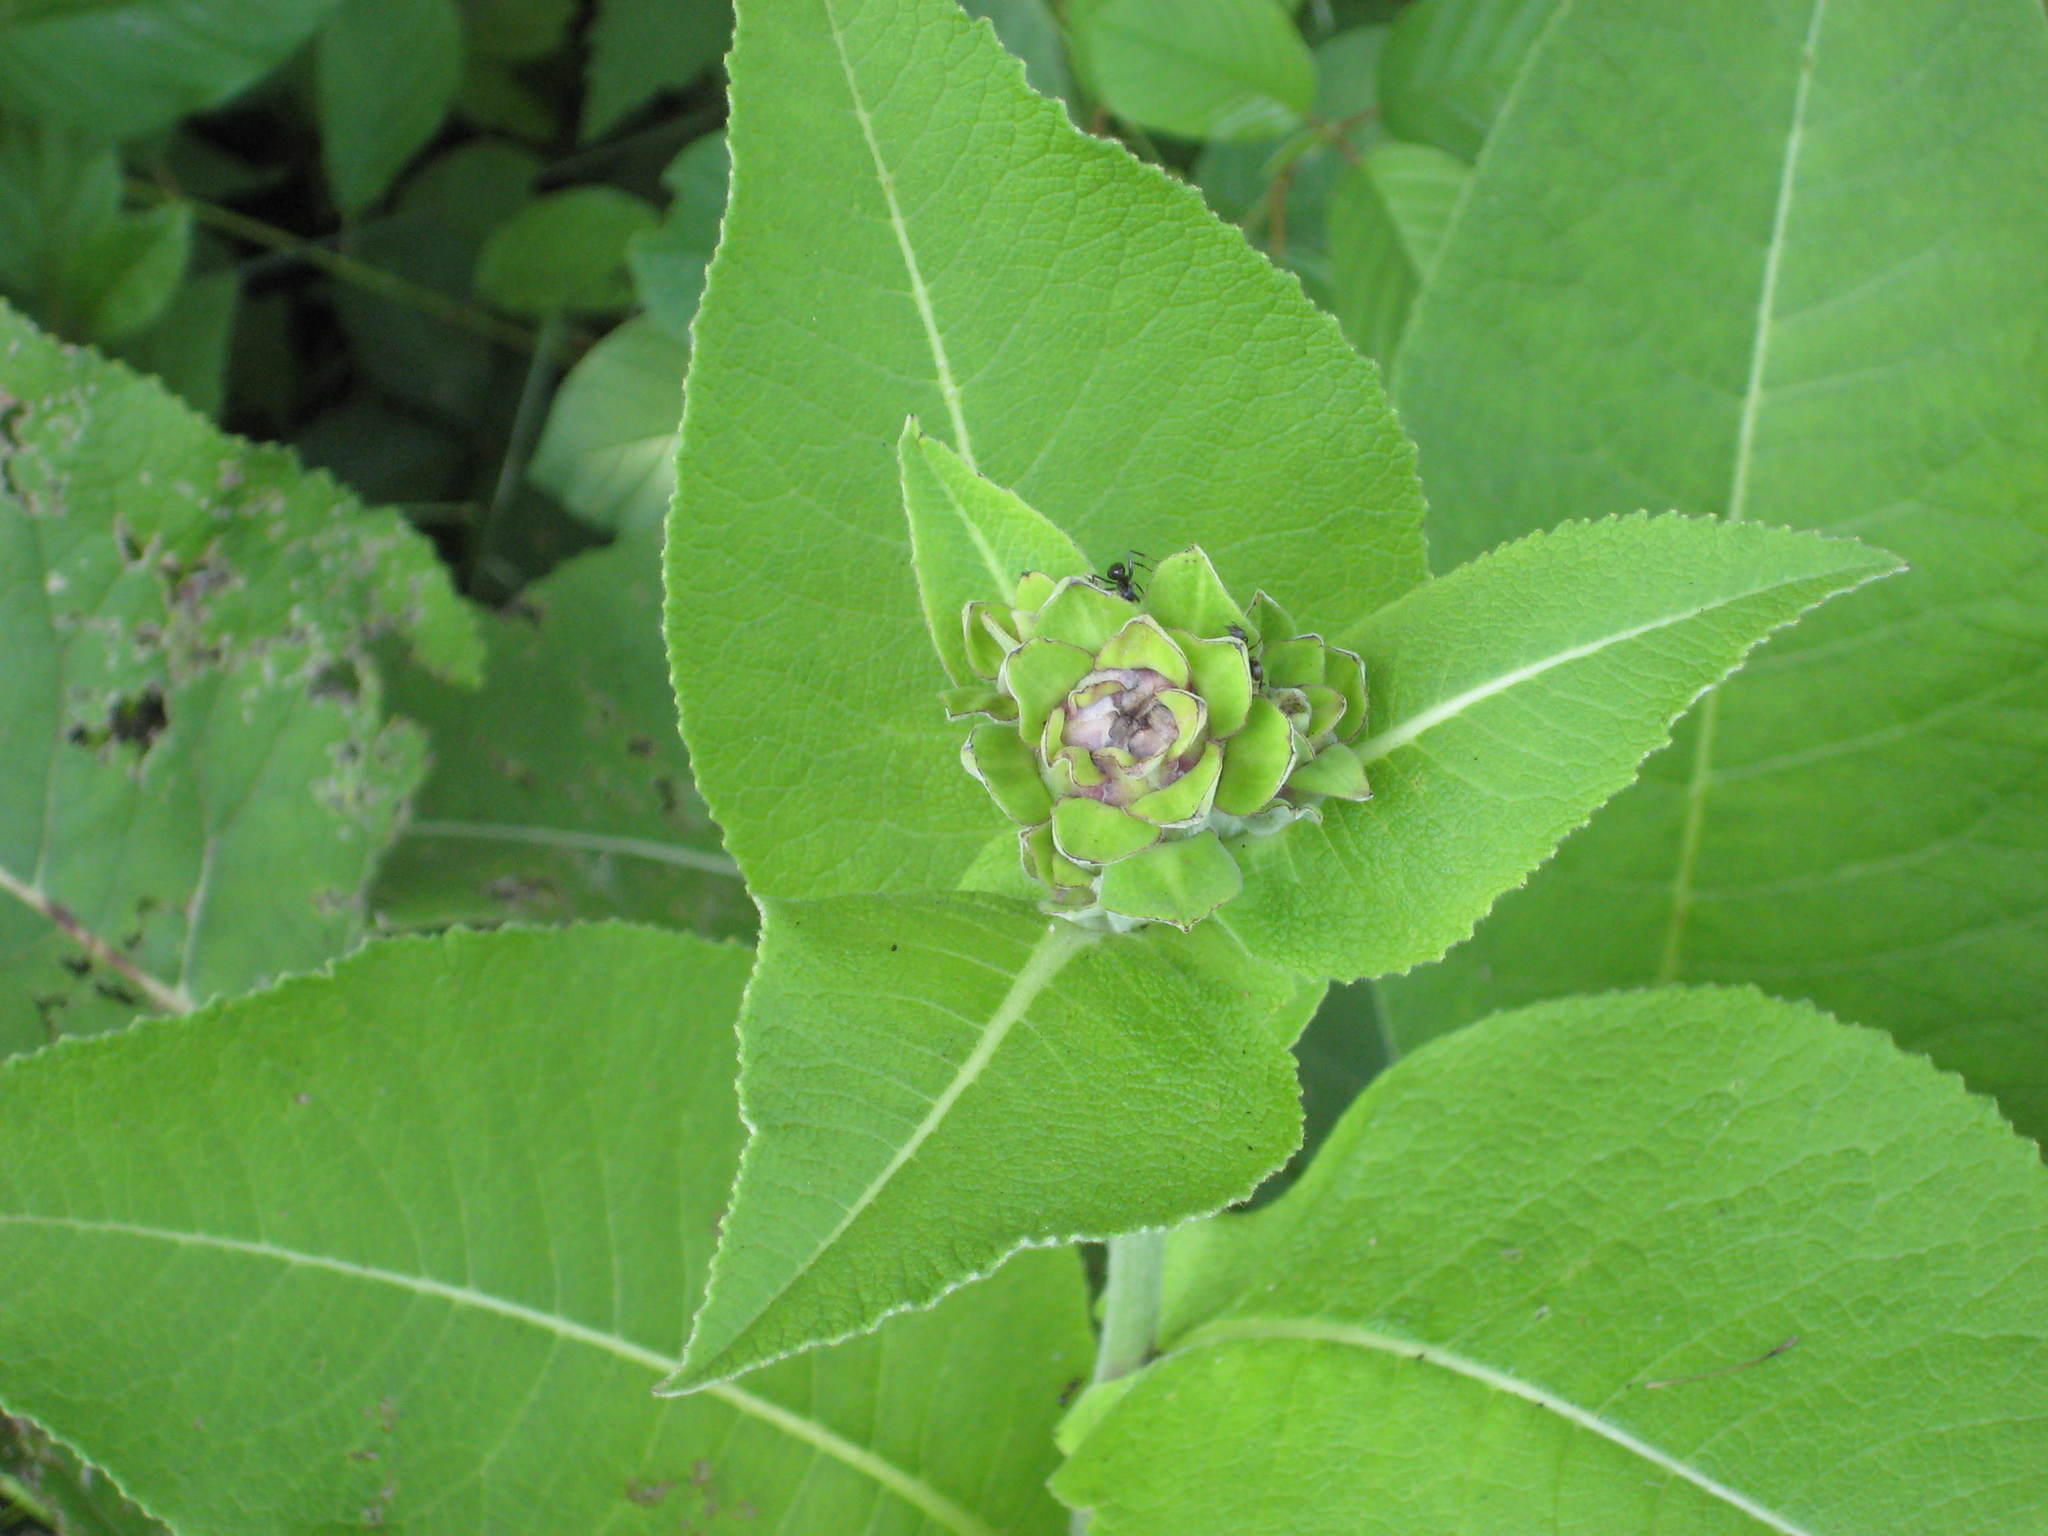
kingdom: Plantae
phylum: Tracheophyta
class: Magnoliopsida
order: Asterales
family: Asteraceae
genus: Inula
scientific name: Inula helenium
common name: Elecampane
